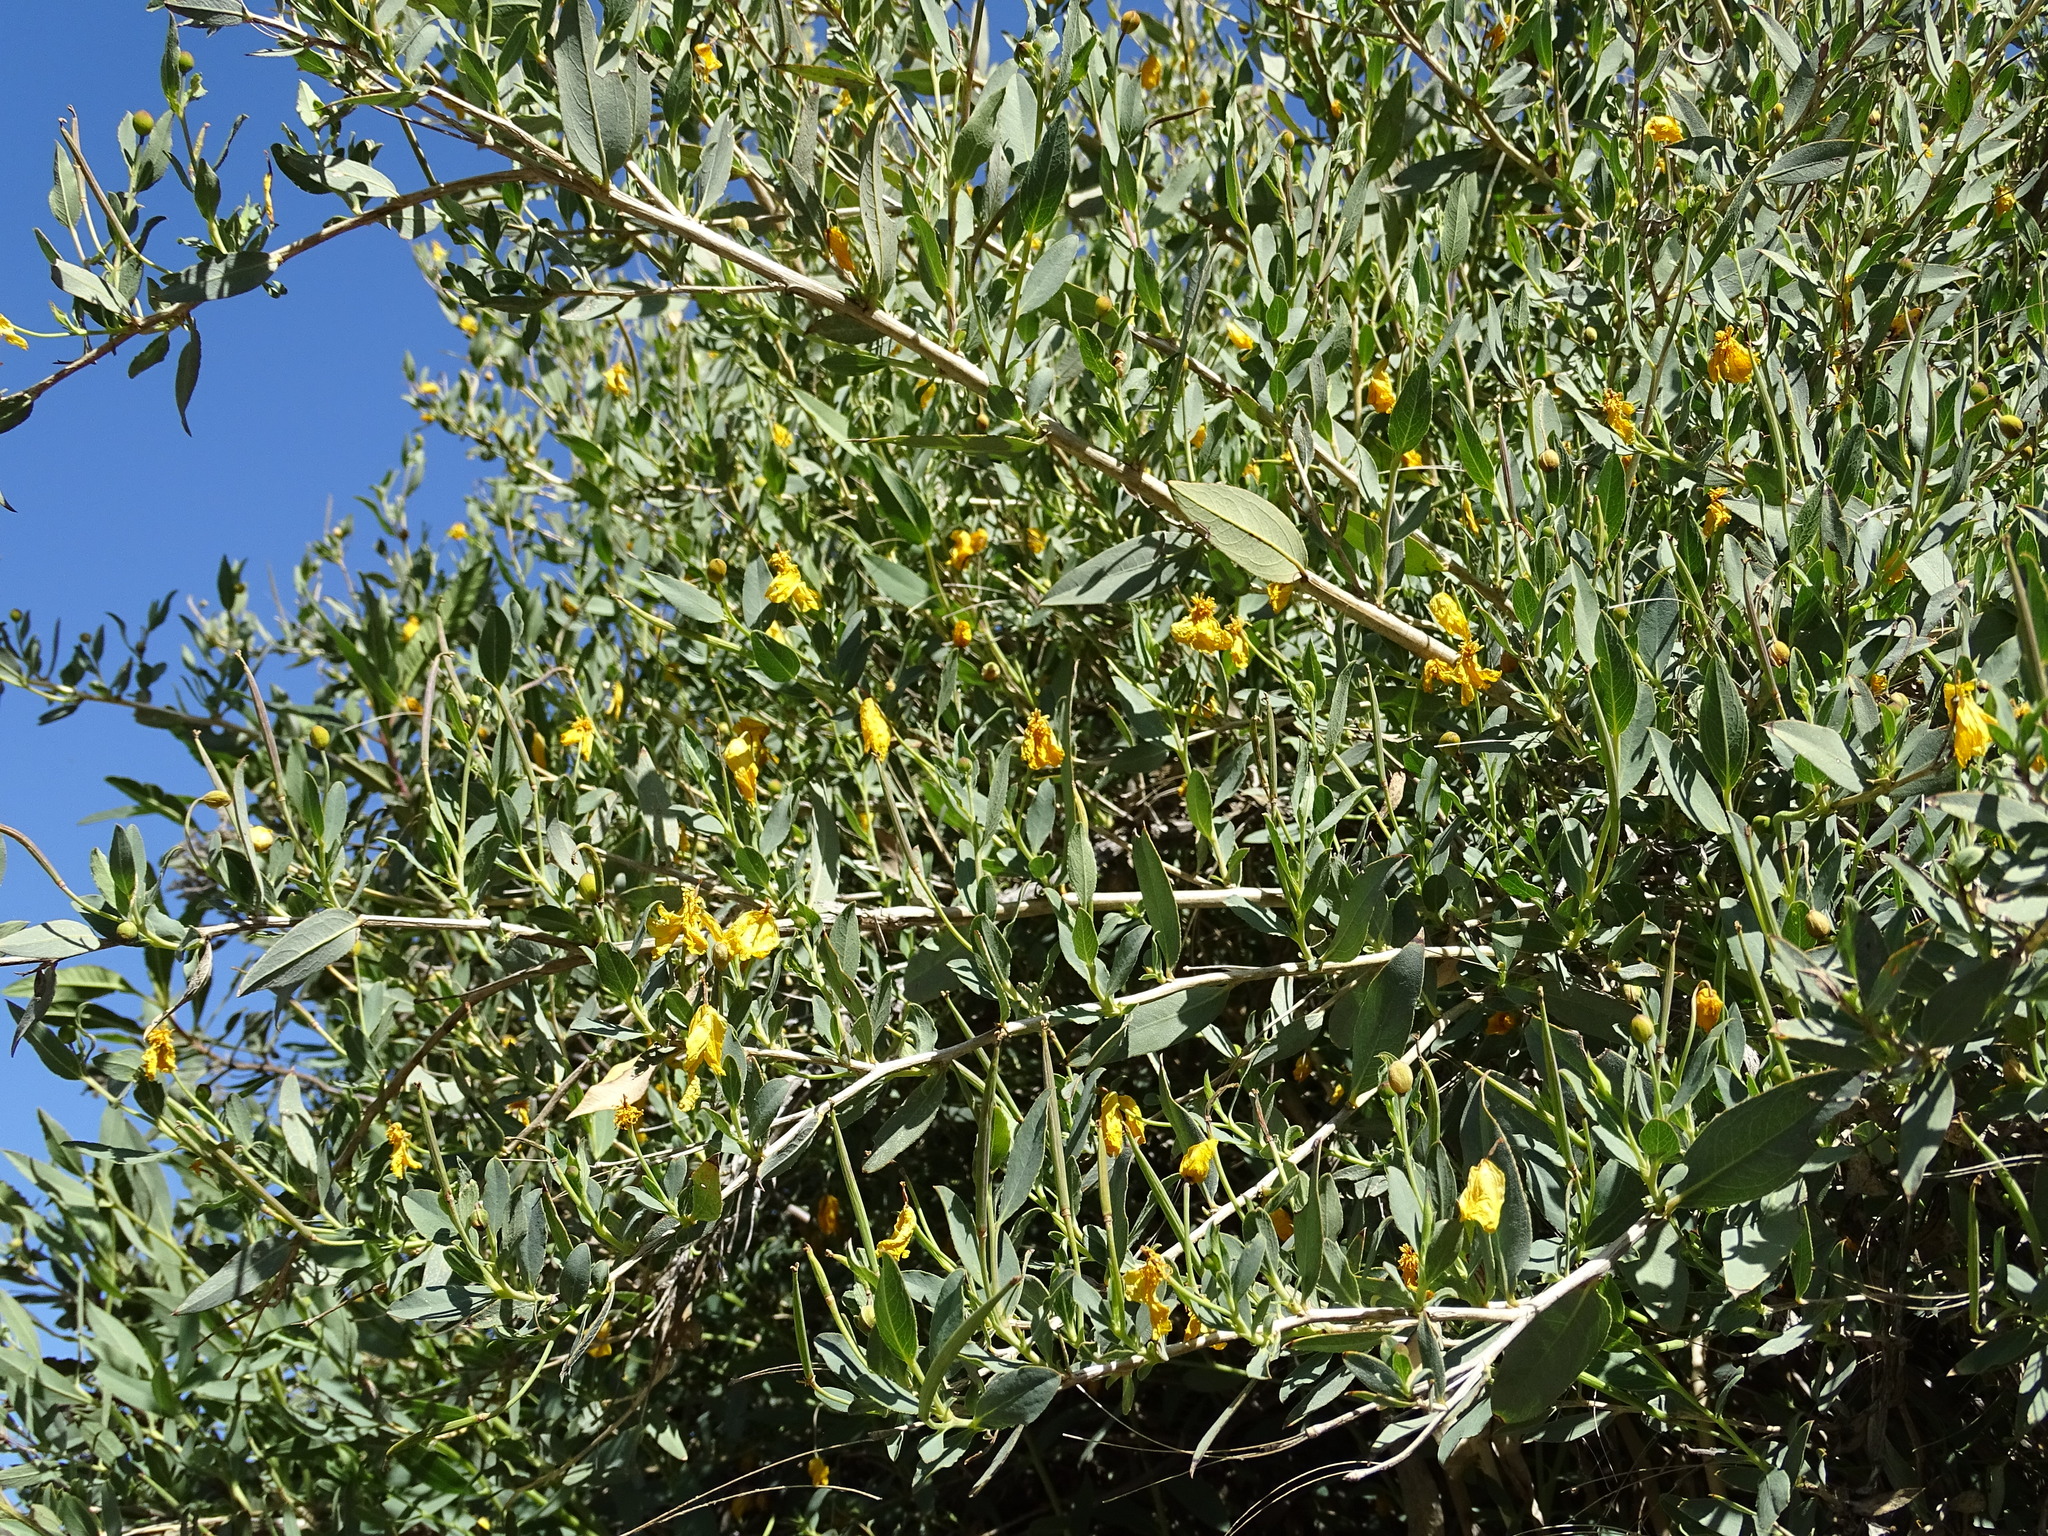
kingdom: Plantae
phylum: Tracheophyta
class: Magnoliopsida
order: Ranunculales
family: Papaveraceae
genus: Dendromecon
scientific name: Dendromecon rigida
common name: Tree poppy
